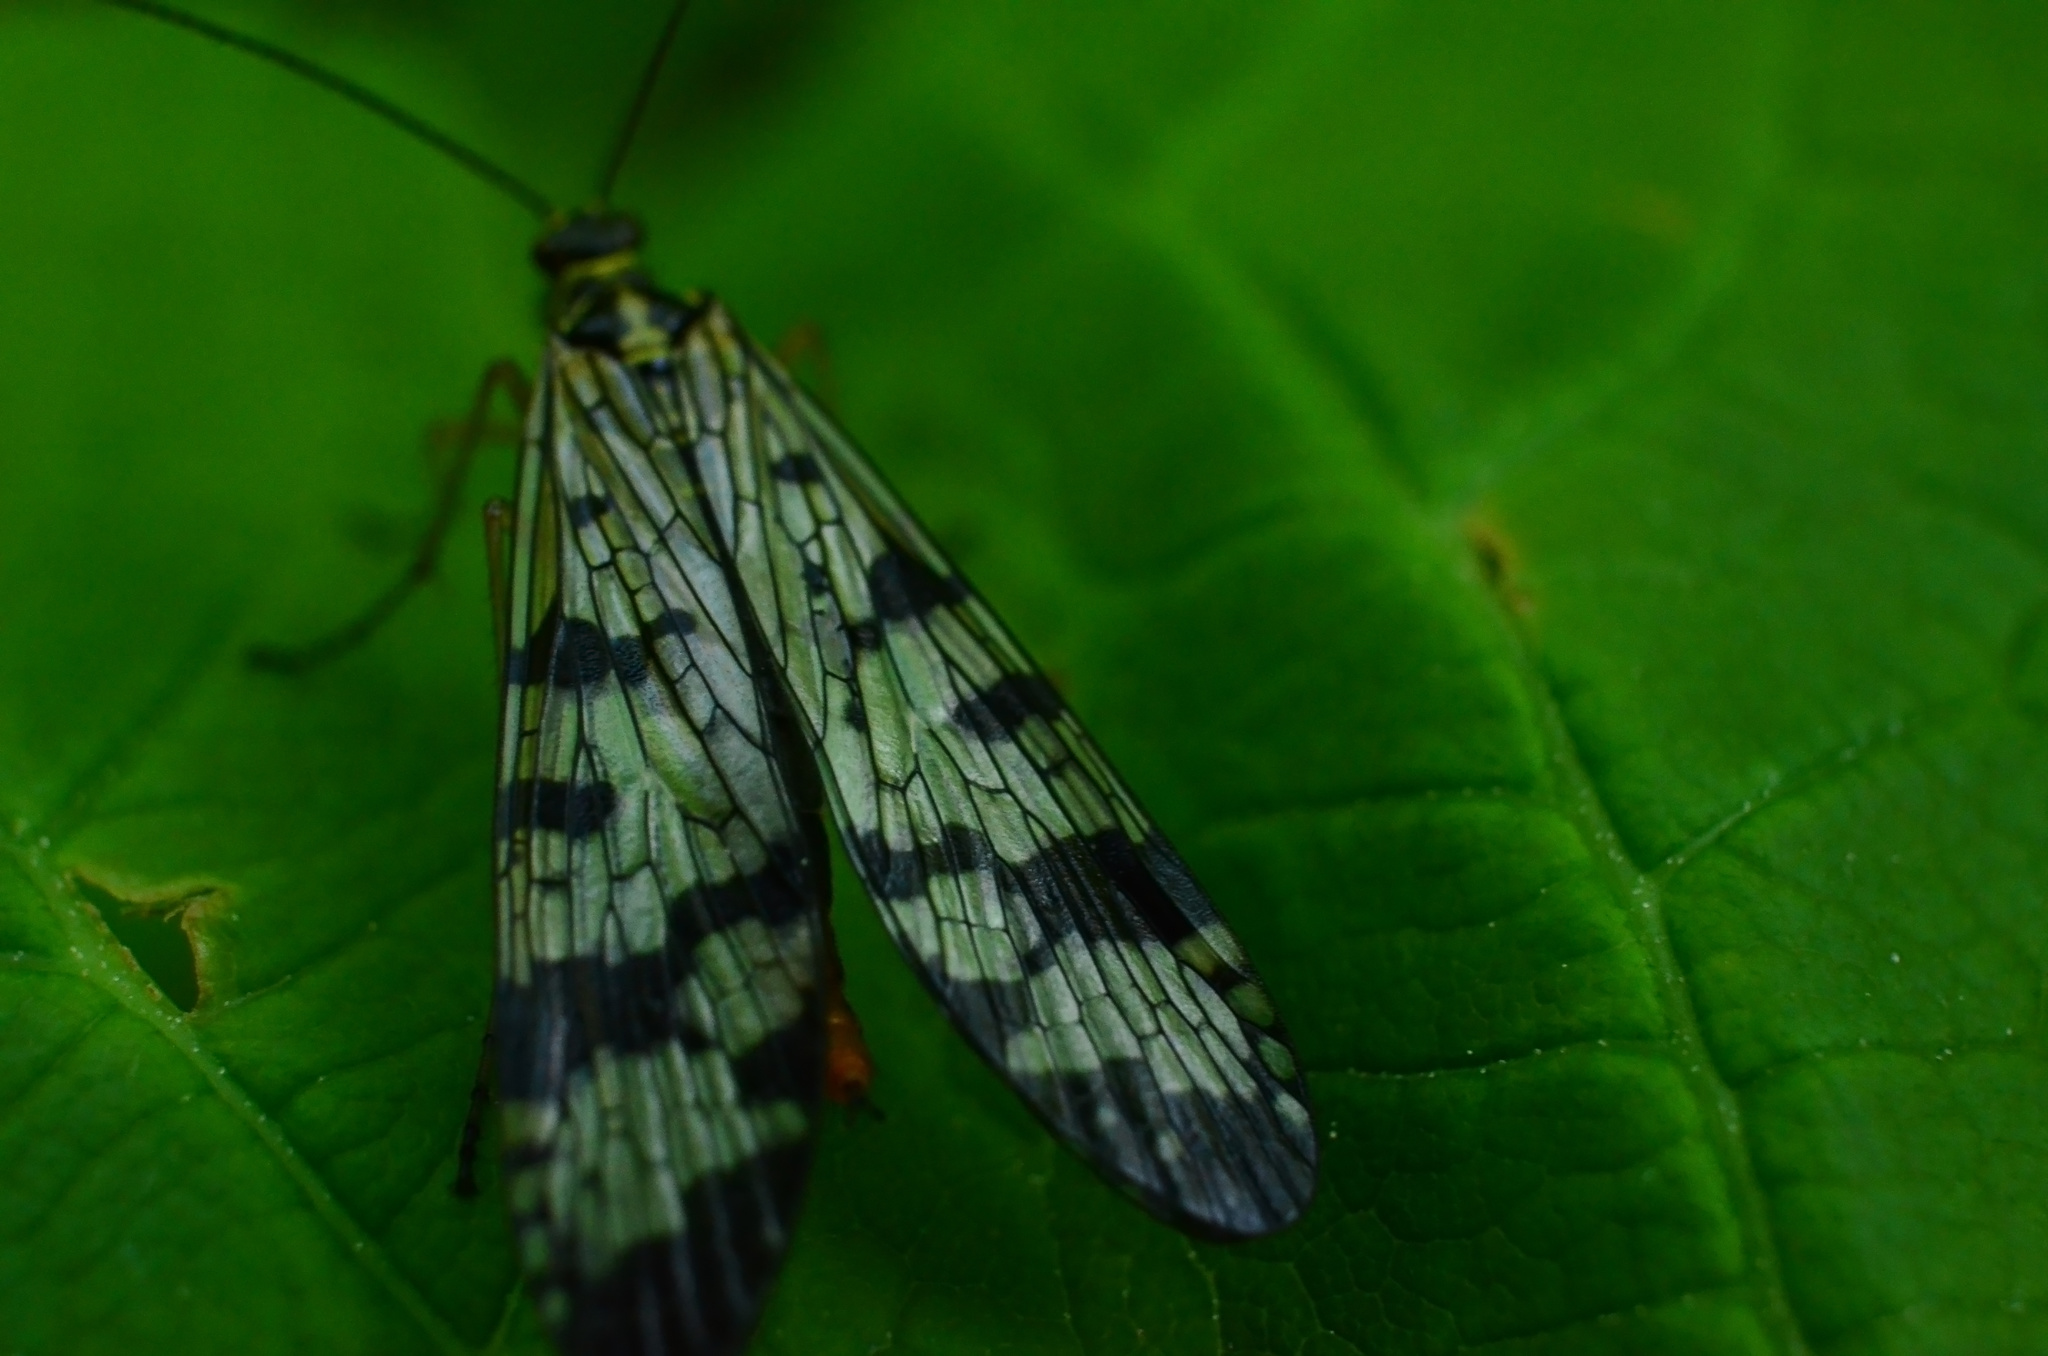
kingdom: Animalia
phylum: Arthropoda
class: Insecta
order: Mecoptera
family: Panorpidae
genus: Panorpa
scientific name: Panorpa communis
